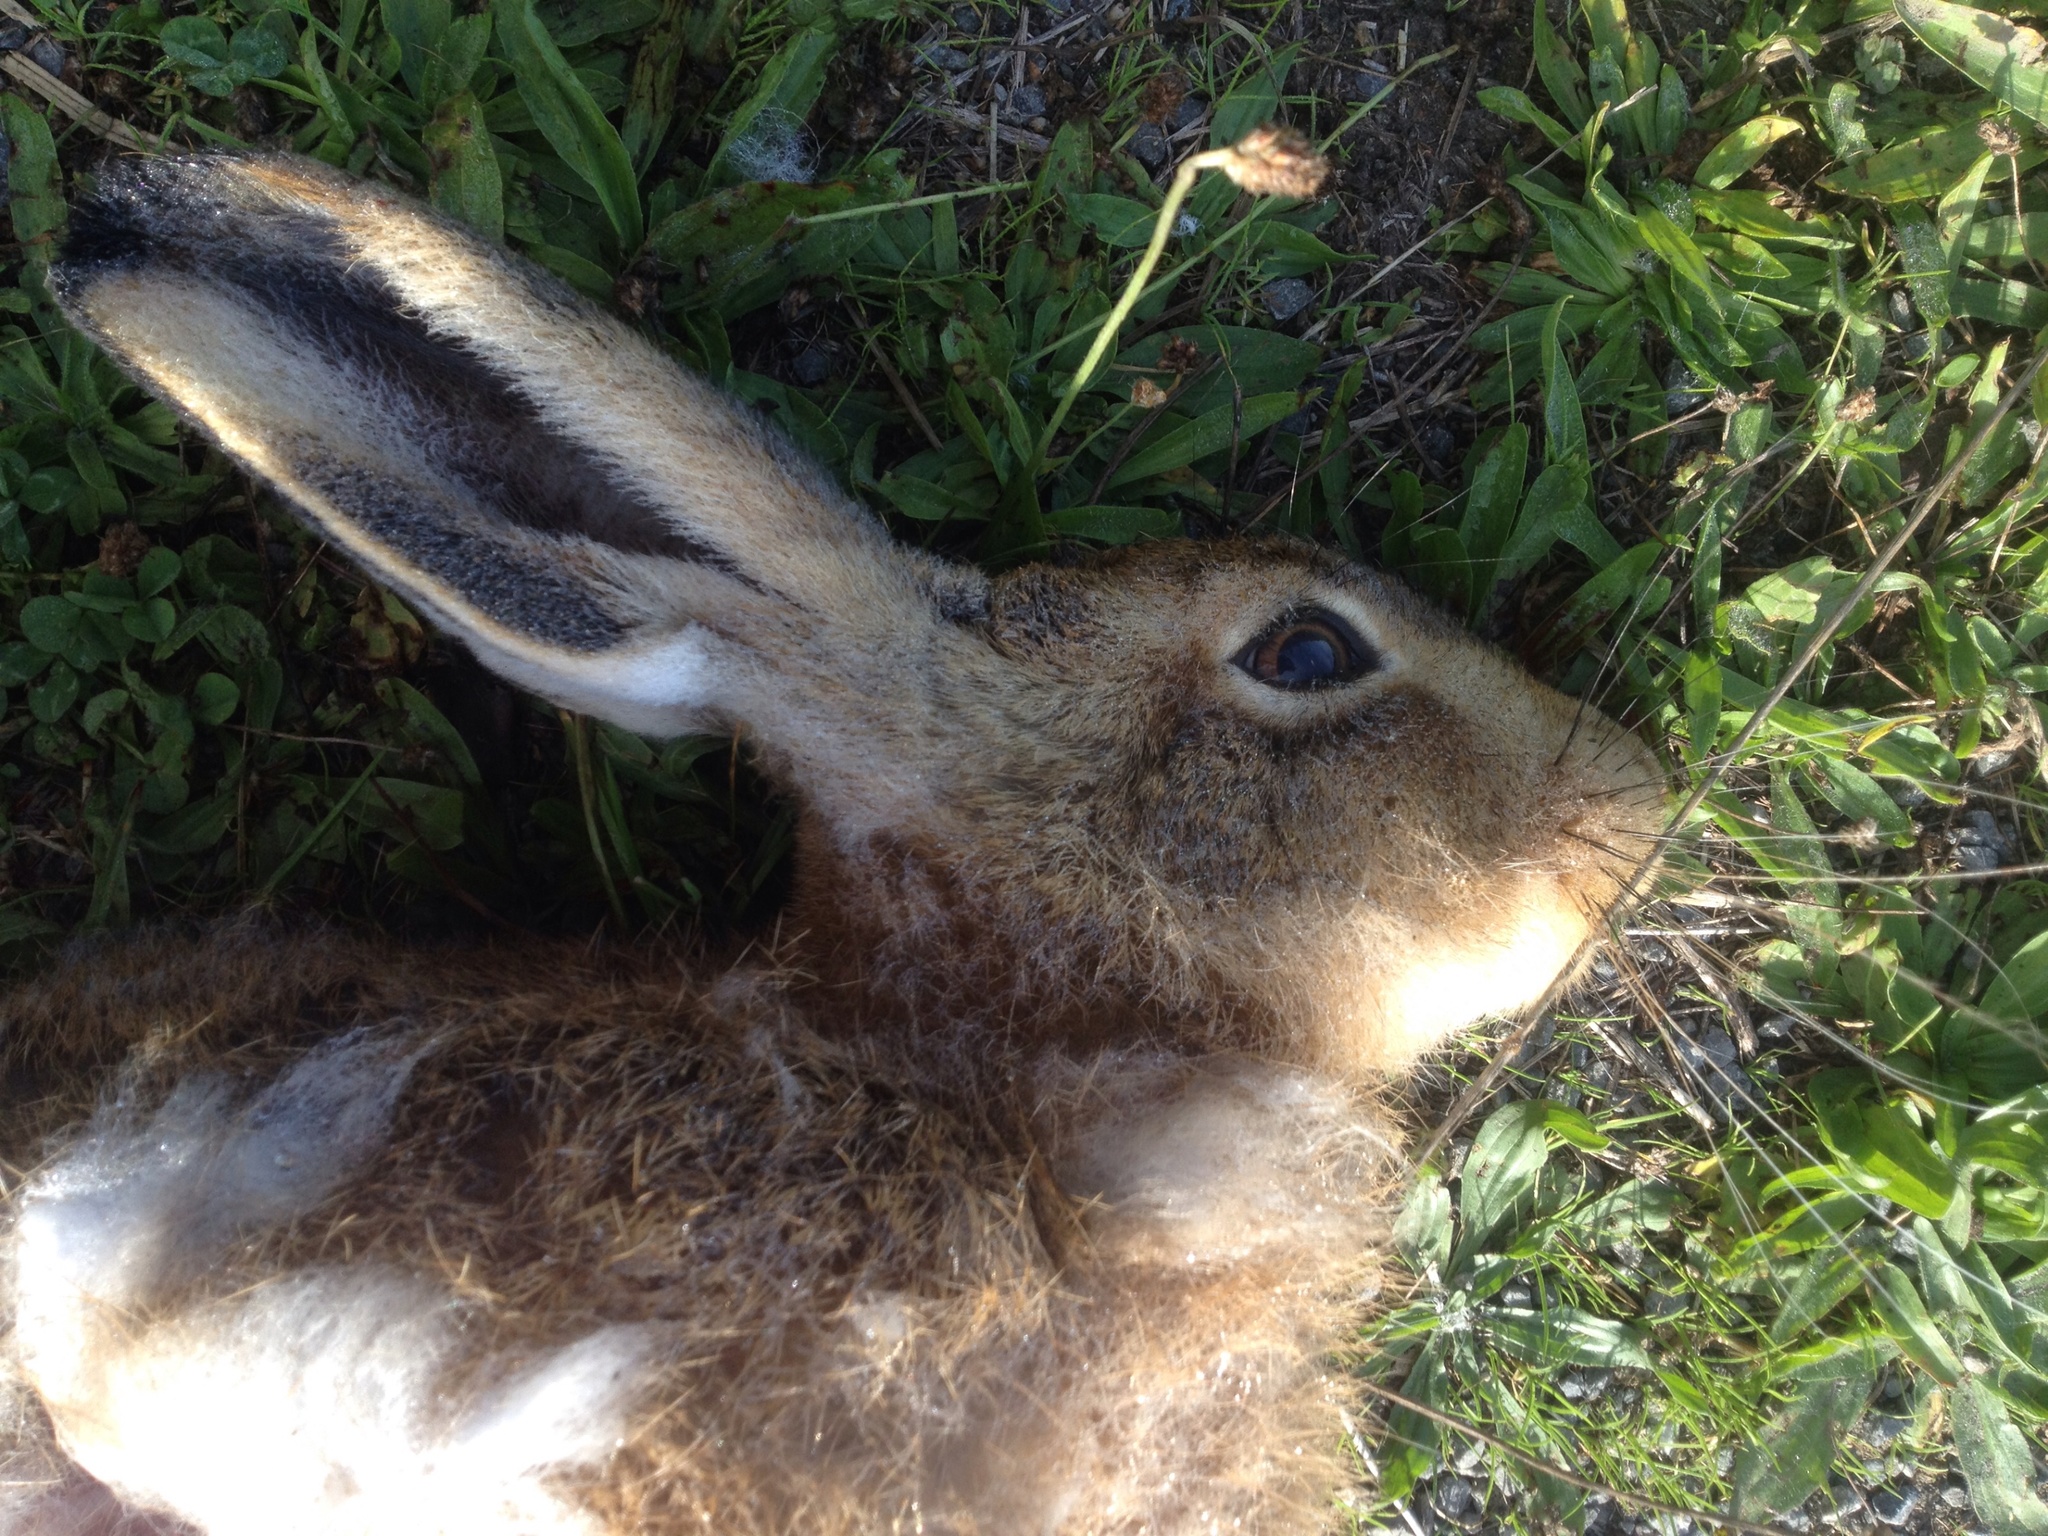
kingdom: Animalia
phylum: Chordata
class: Mammalia
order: Lagomorpha
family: Leporidae
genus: Lepus
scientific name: Lepus europaeus
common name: European hare
